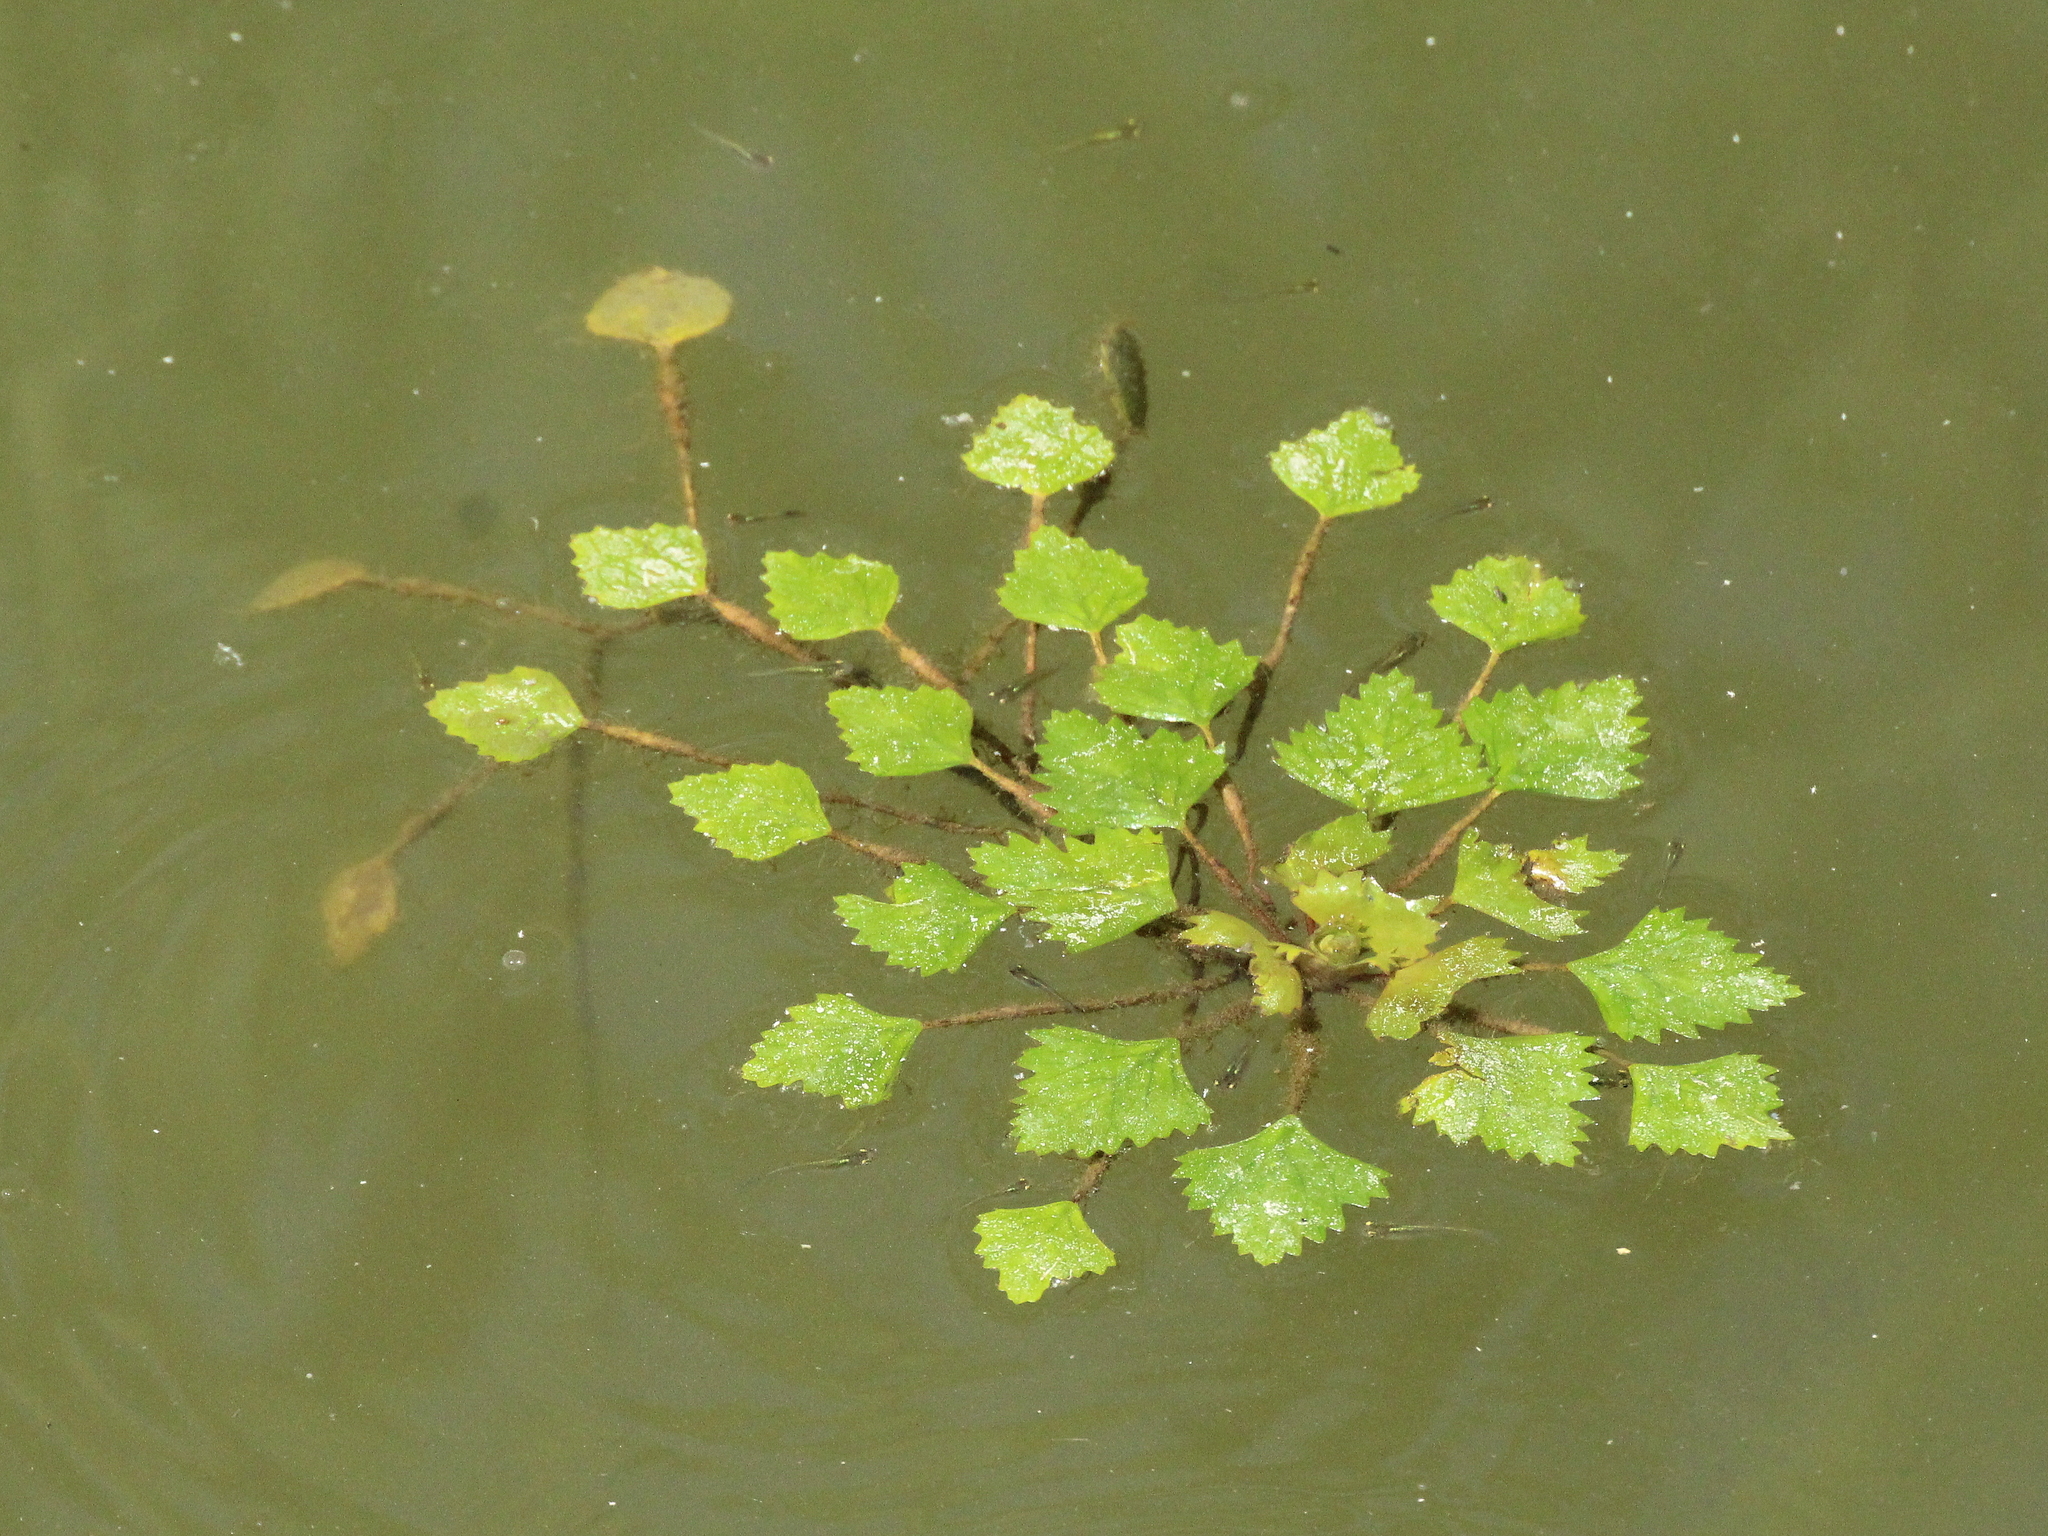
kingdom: Plantae
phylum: Tracheophyta
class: Magnoliopsida
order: Myrtales
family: Lythraceae
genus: Trapa
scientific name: Trapa natans
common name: Water chestnut
